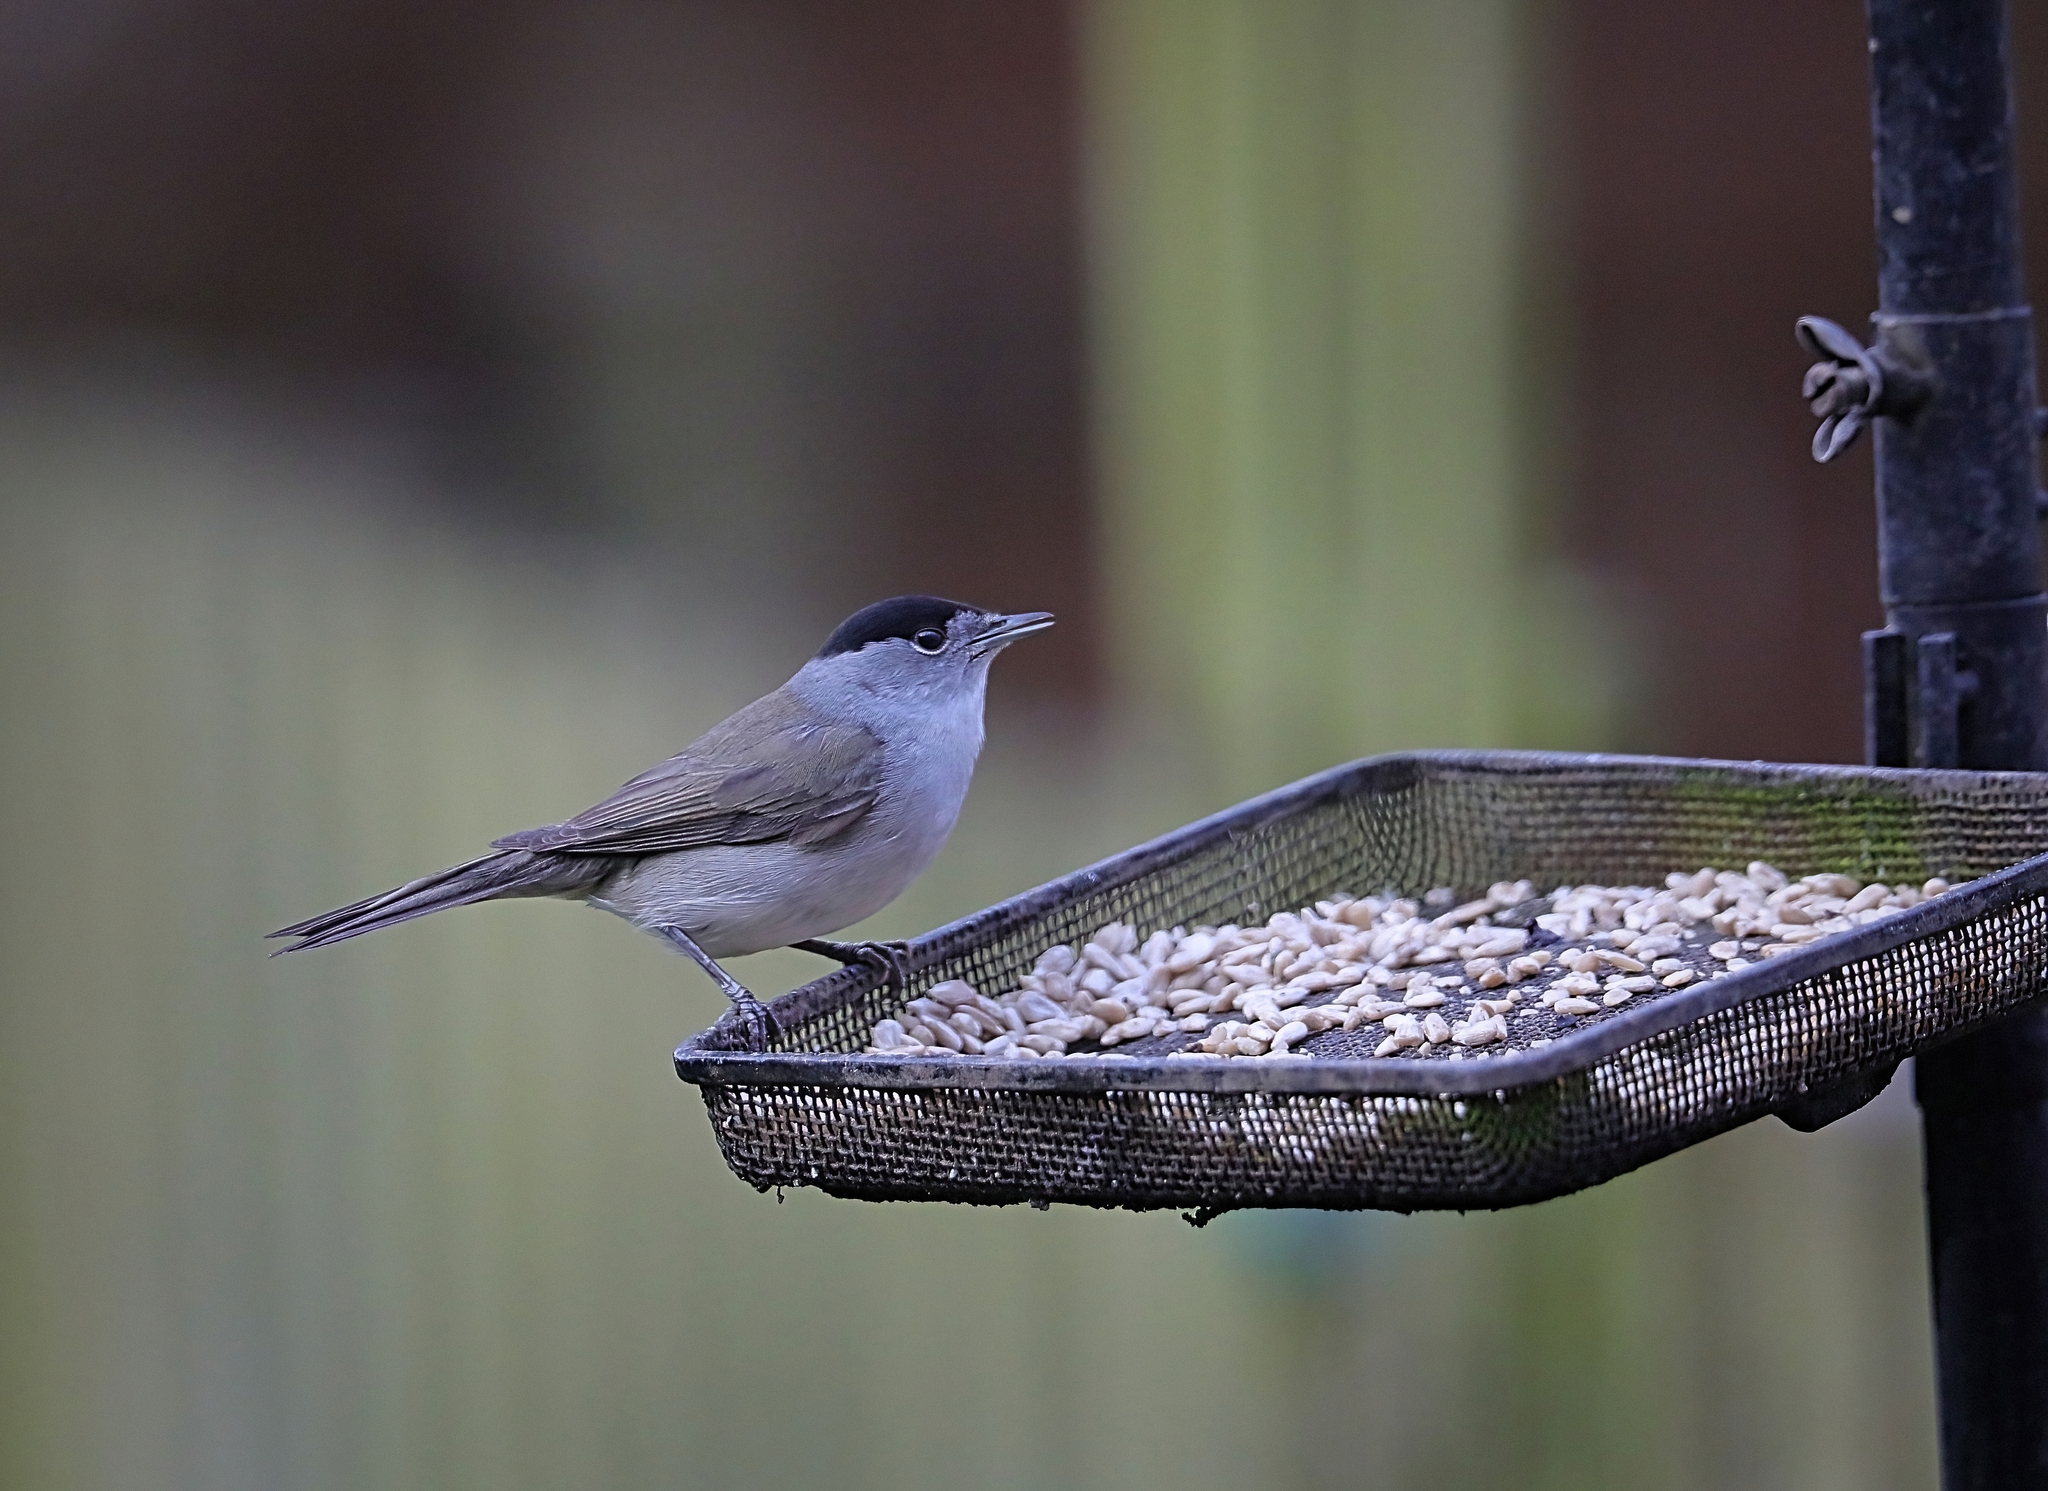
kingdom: Animalia
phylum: Chordata
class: Aves
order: Passeriformes
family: Sylviidae
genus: Sylvia
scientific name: Sylvia atricapilla
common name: Eurasian blackcap
